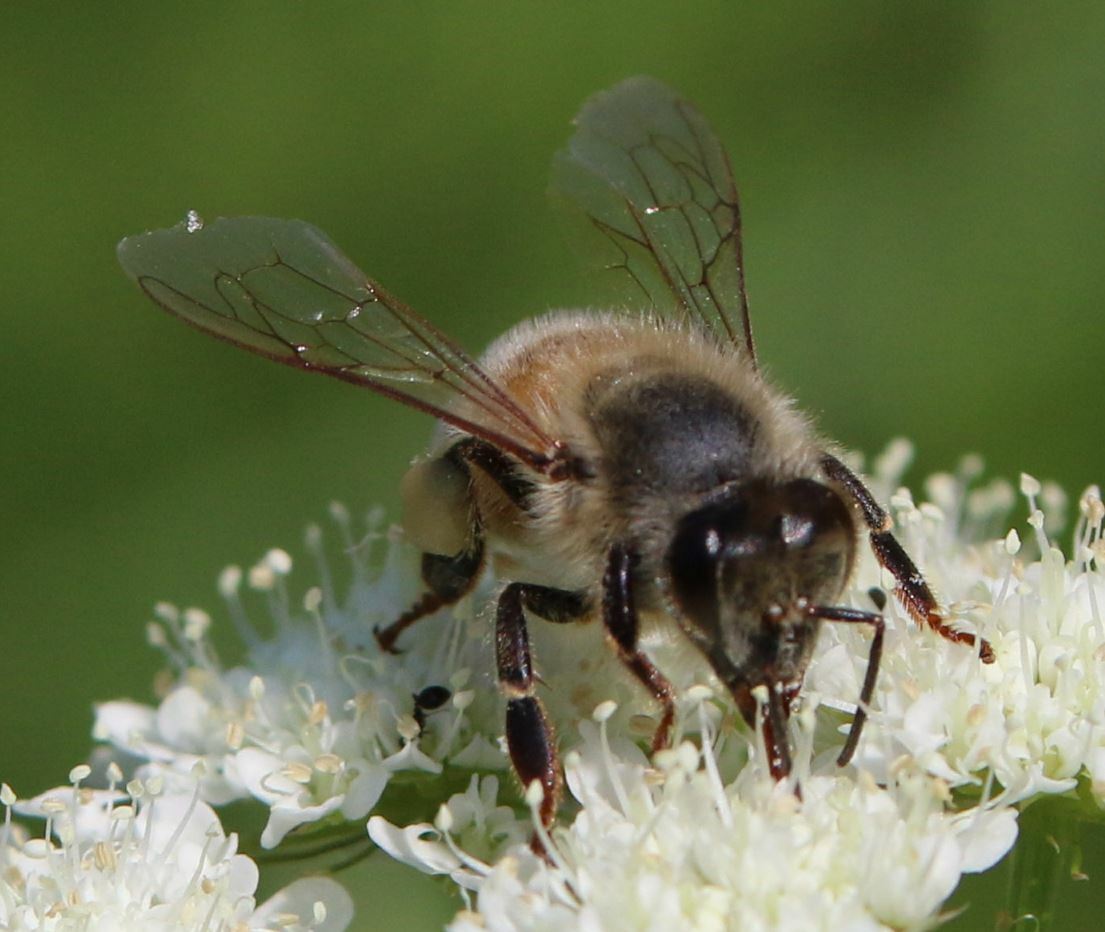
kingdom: Animalia
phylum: Arthropoda
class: Insecta
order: Hymenoptera
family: Apidae
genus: Apis
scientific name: Apis mellifera
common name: Honey bee
